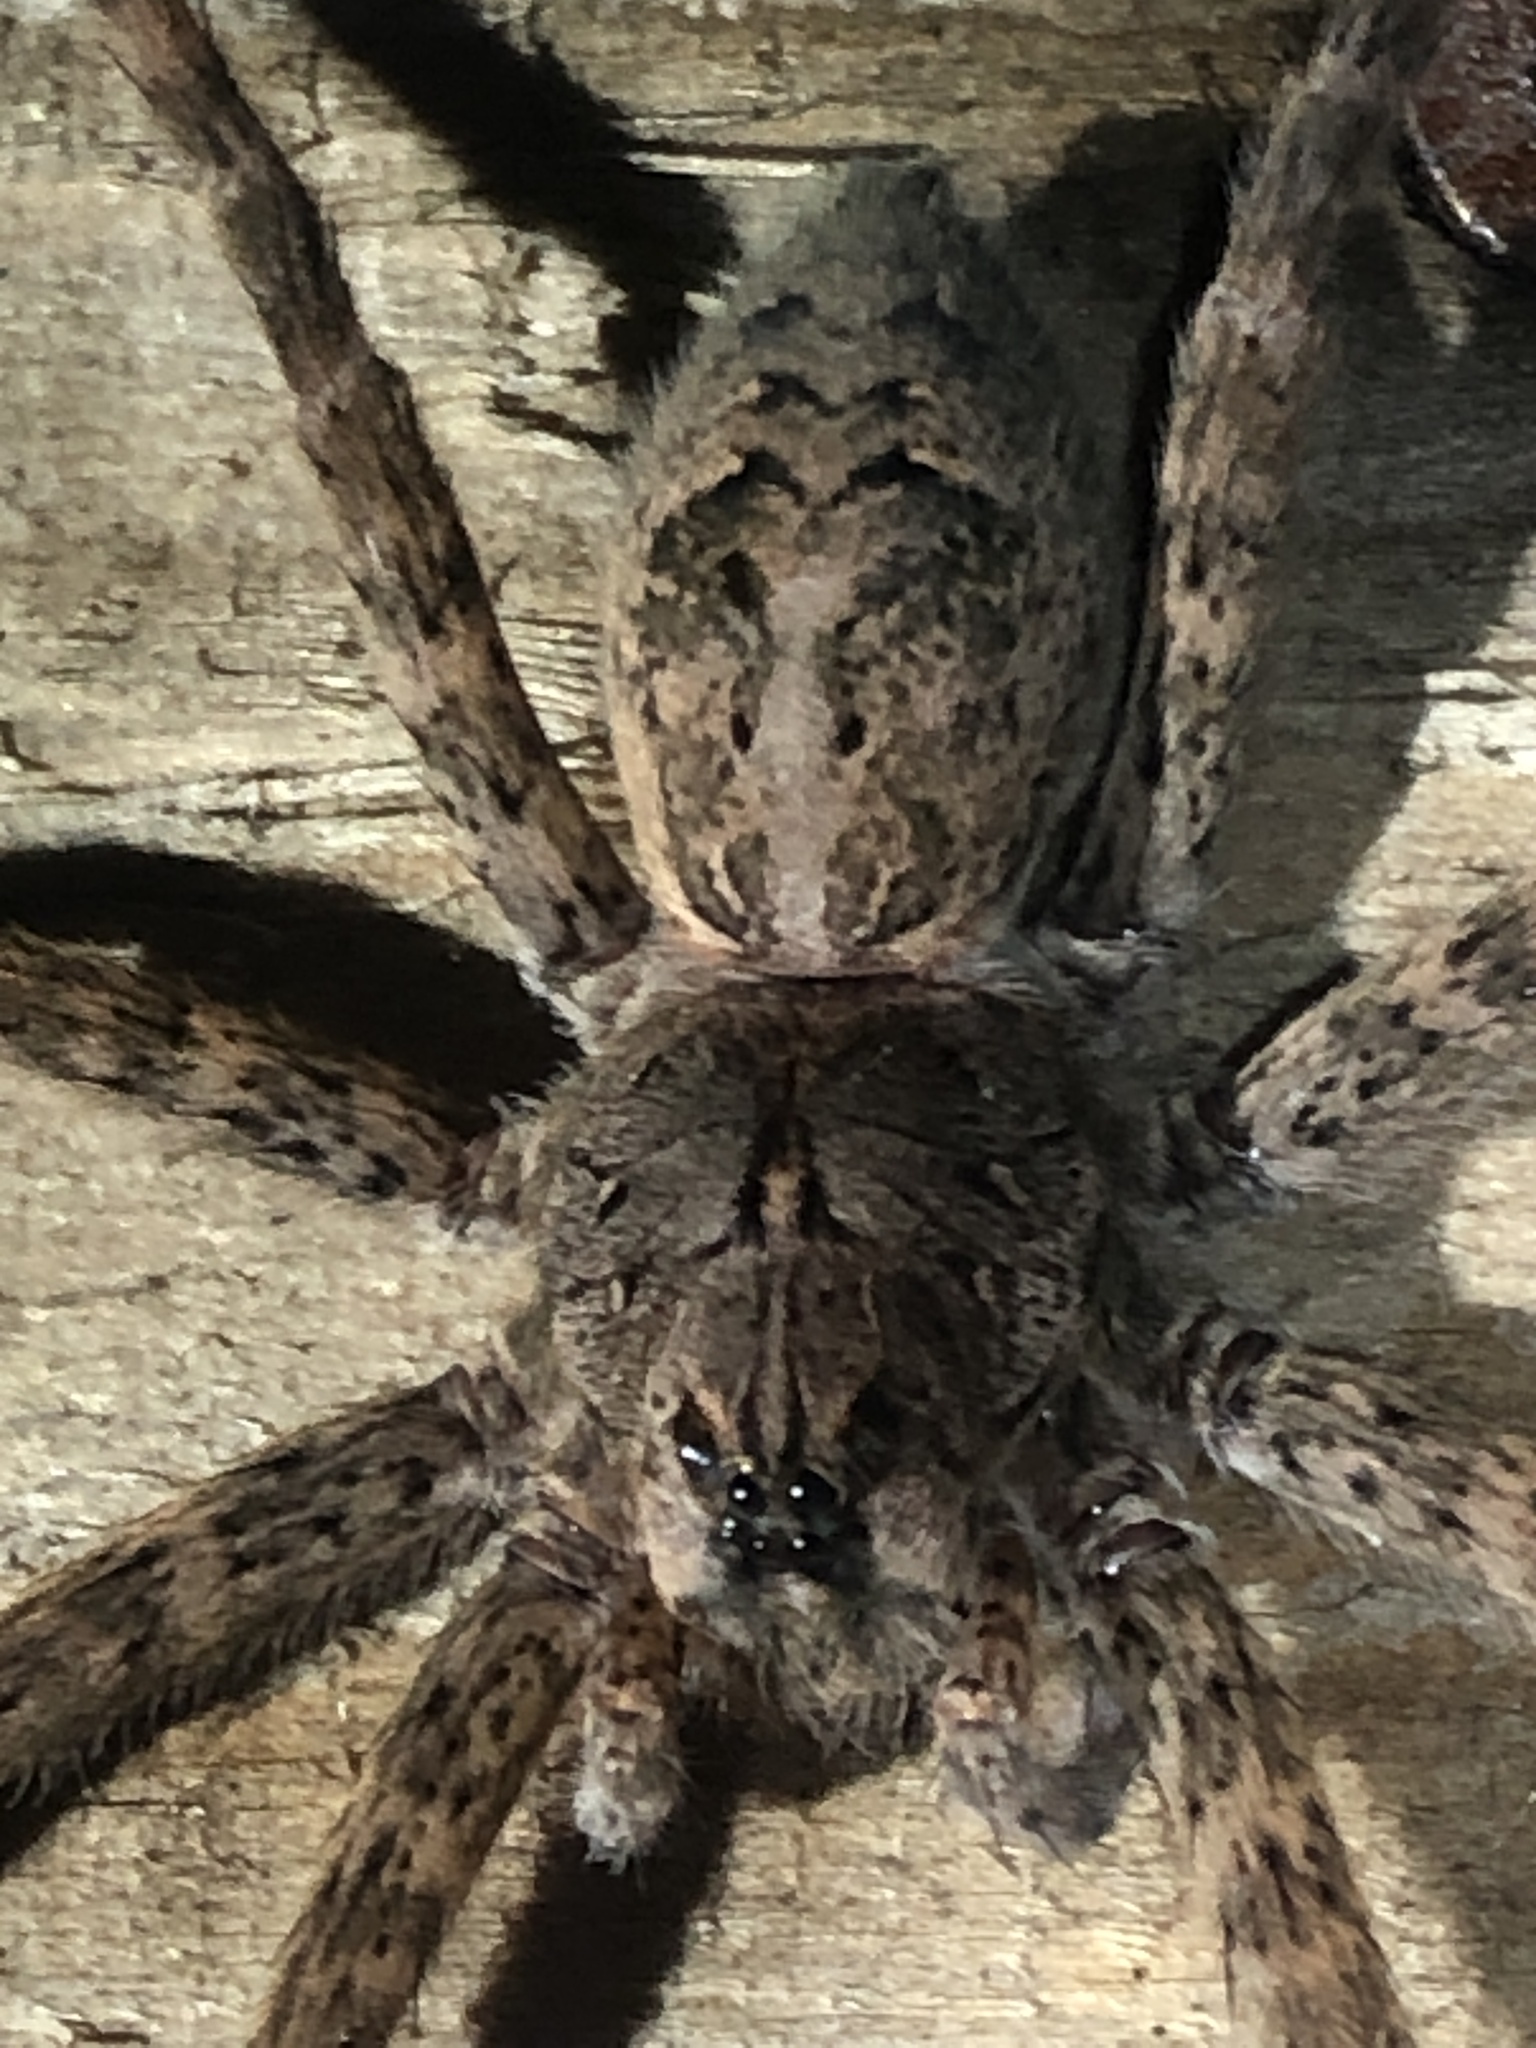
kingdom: Animalia
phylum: Arthropoda
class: Arachnida
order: Araneae
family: Pisauridae
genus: Dolomedes
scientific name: Dolomedes tenebrosus
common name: Dark fishing spider
